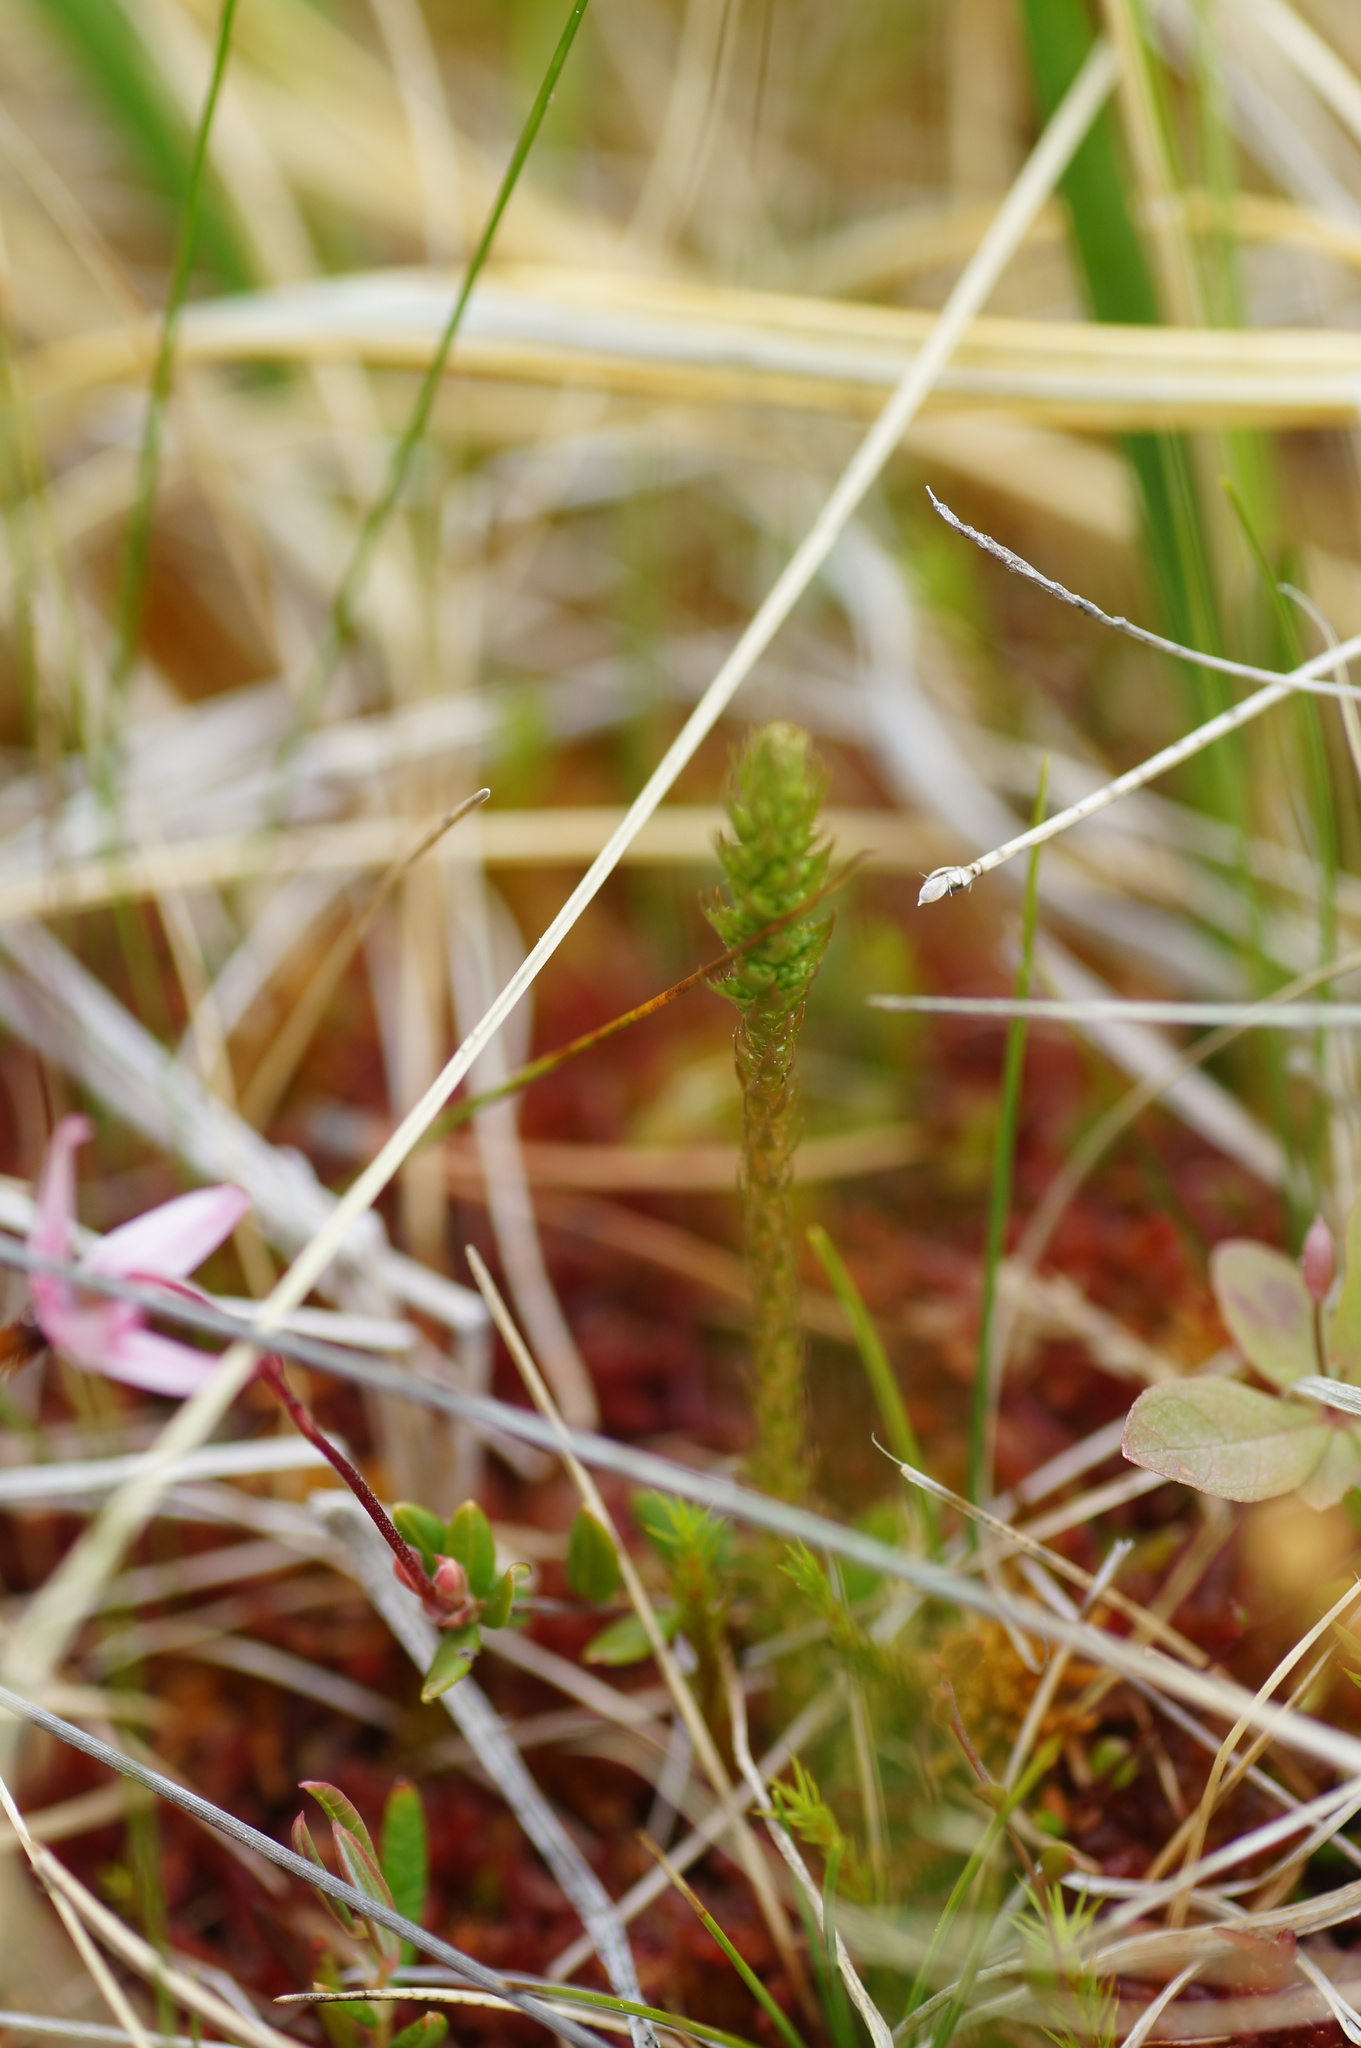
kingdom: Plantae
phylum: Tracheophyta
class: Lycopodiopsida
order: Selaginellales
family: Selaginellaceae
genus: Selaginella
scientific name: Selaginella selaginoides
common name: Prickly mountain-moss
